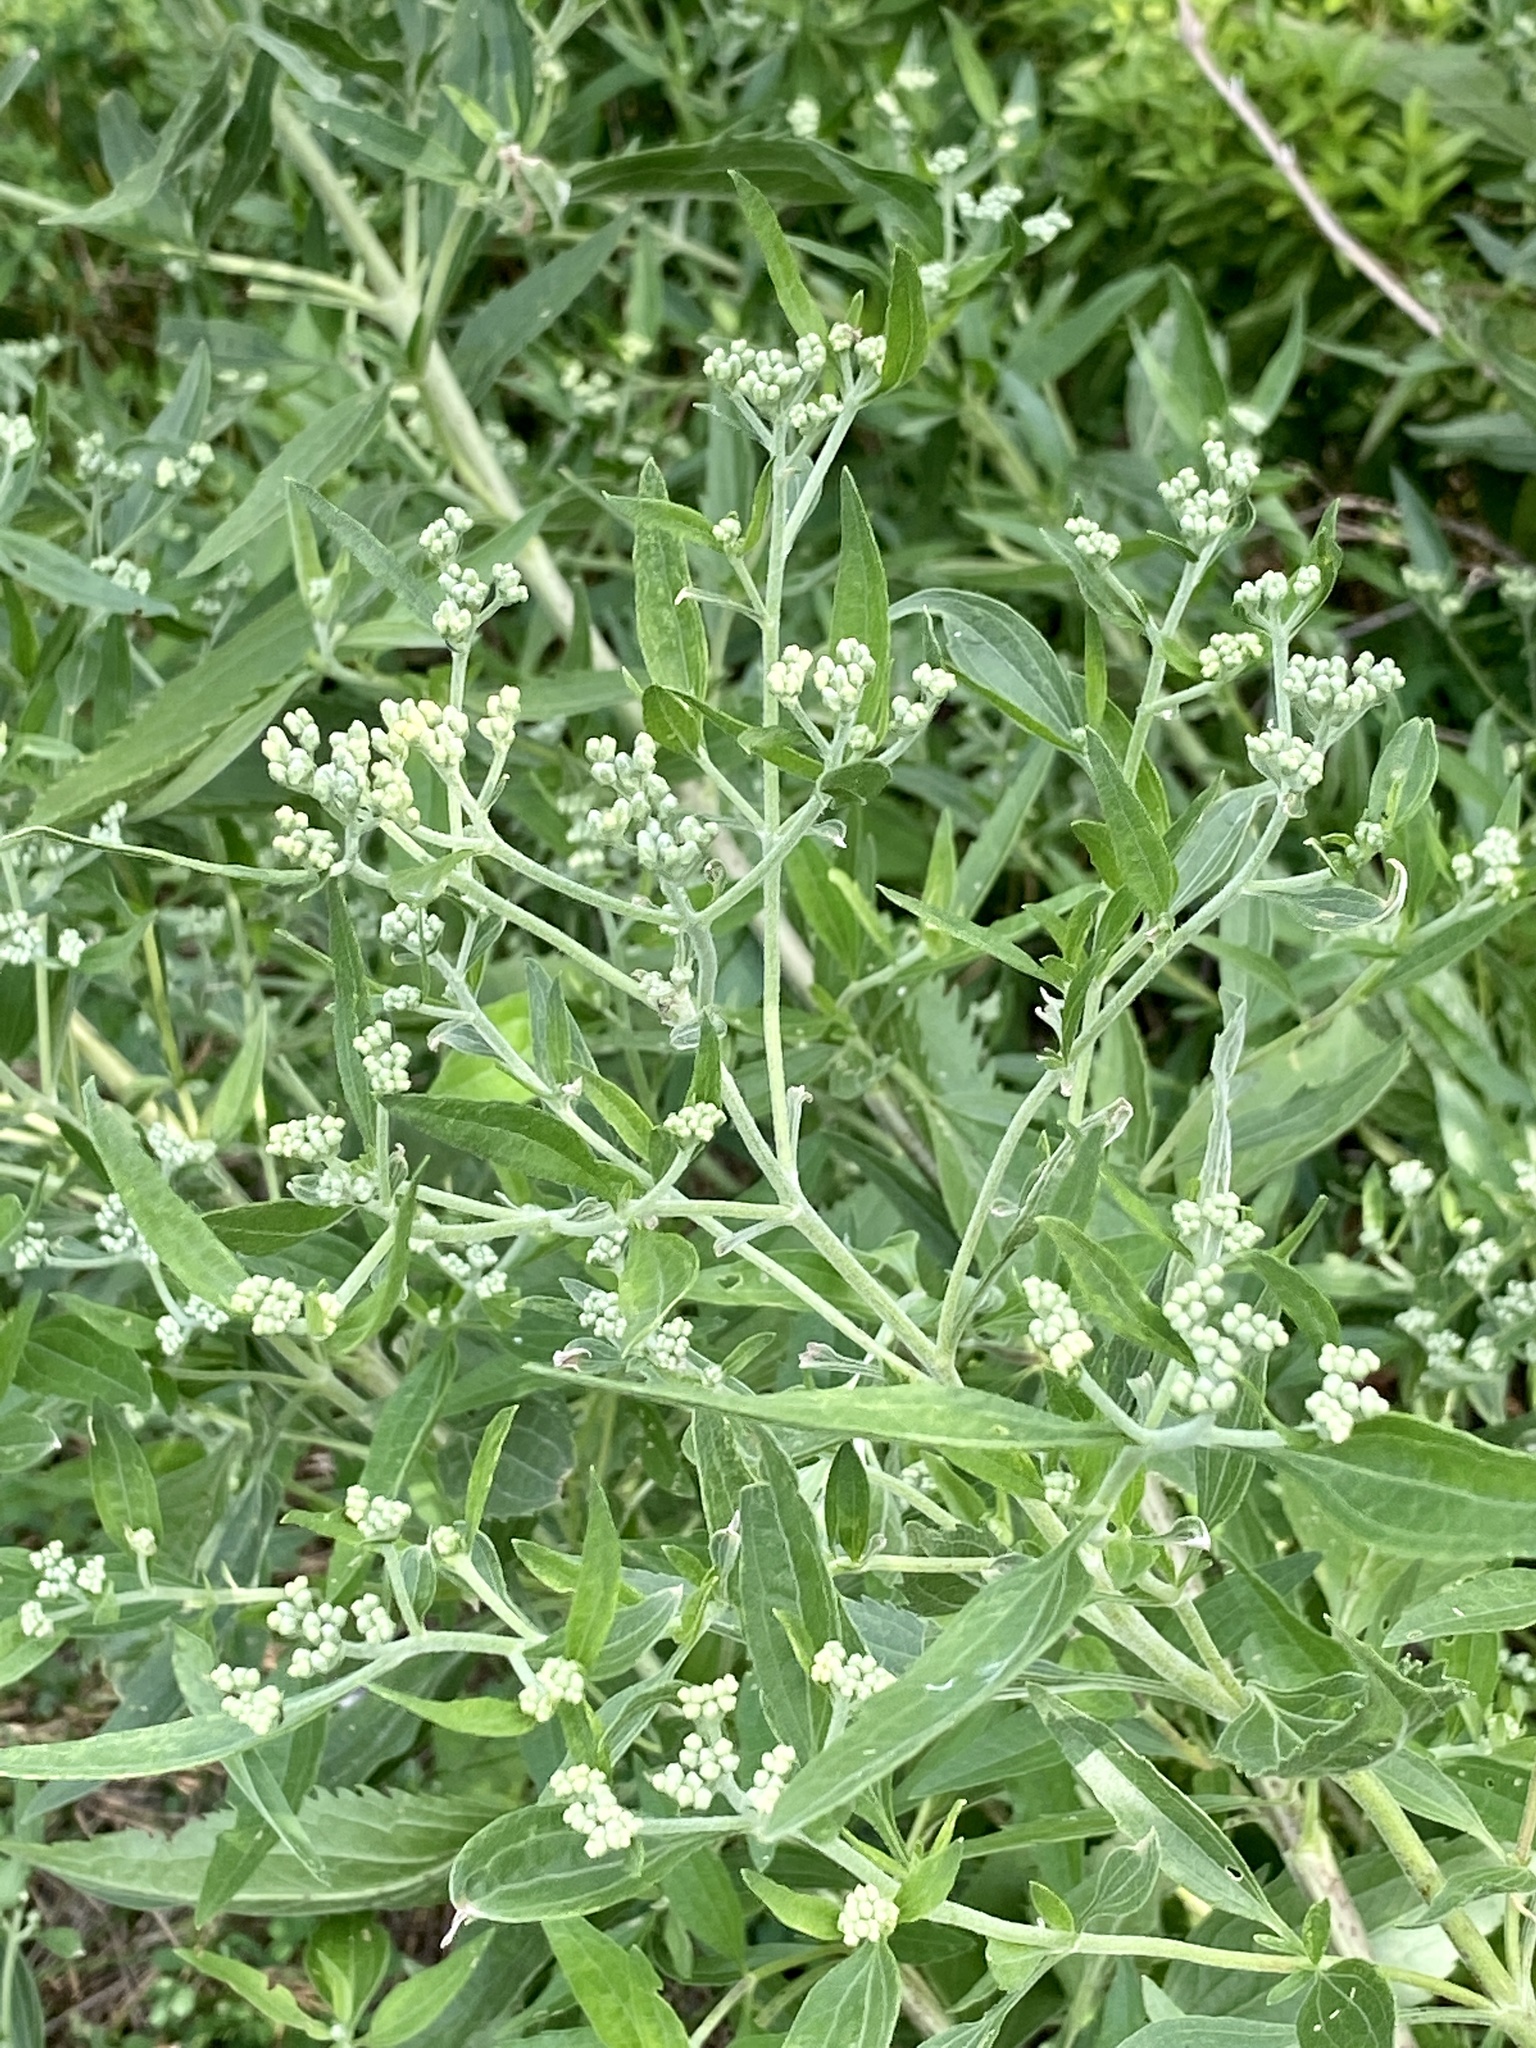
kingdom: Plantae
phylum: Tracheophyta
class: Magnoliopsida
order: Asterales
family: Asteraceae
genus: Eupatorium
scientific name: Eupatorium serotinum
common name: Late boneset
